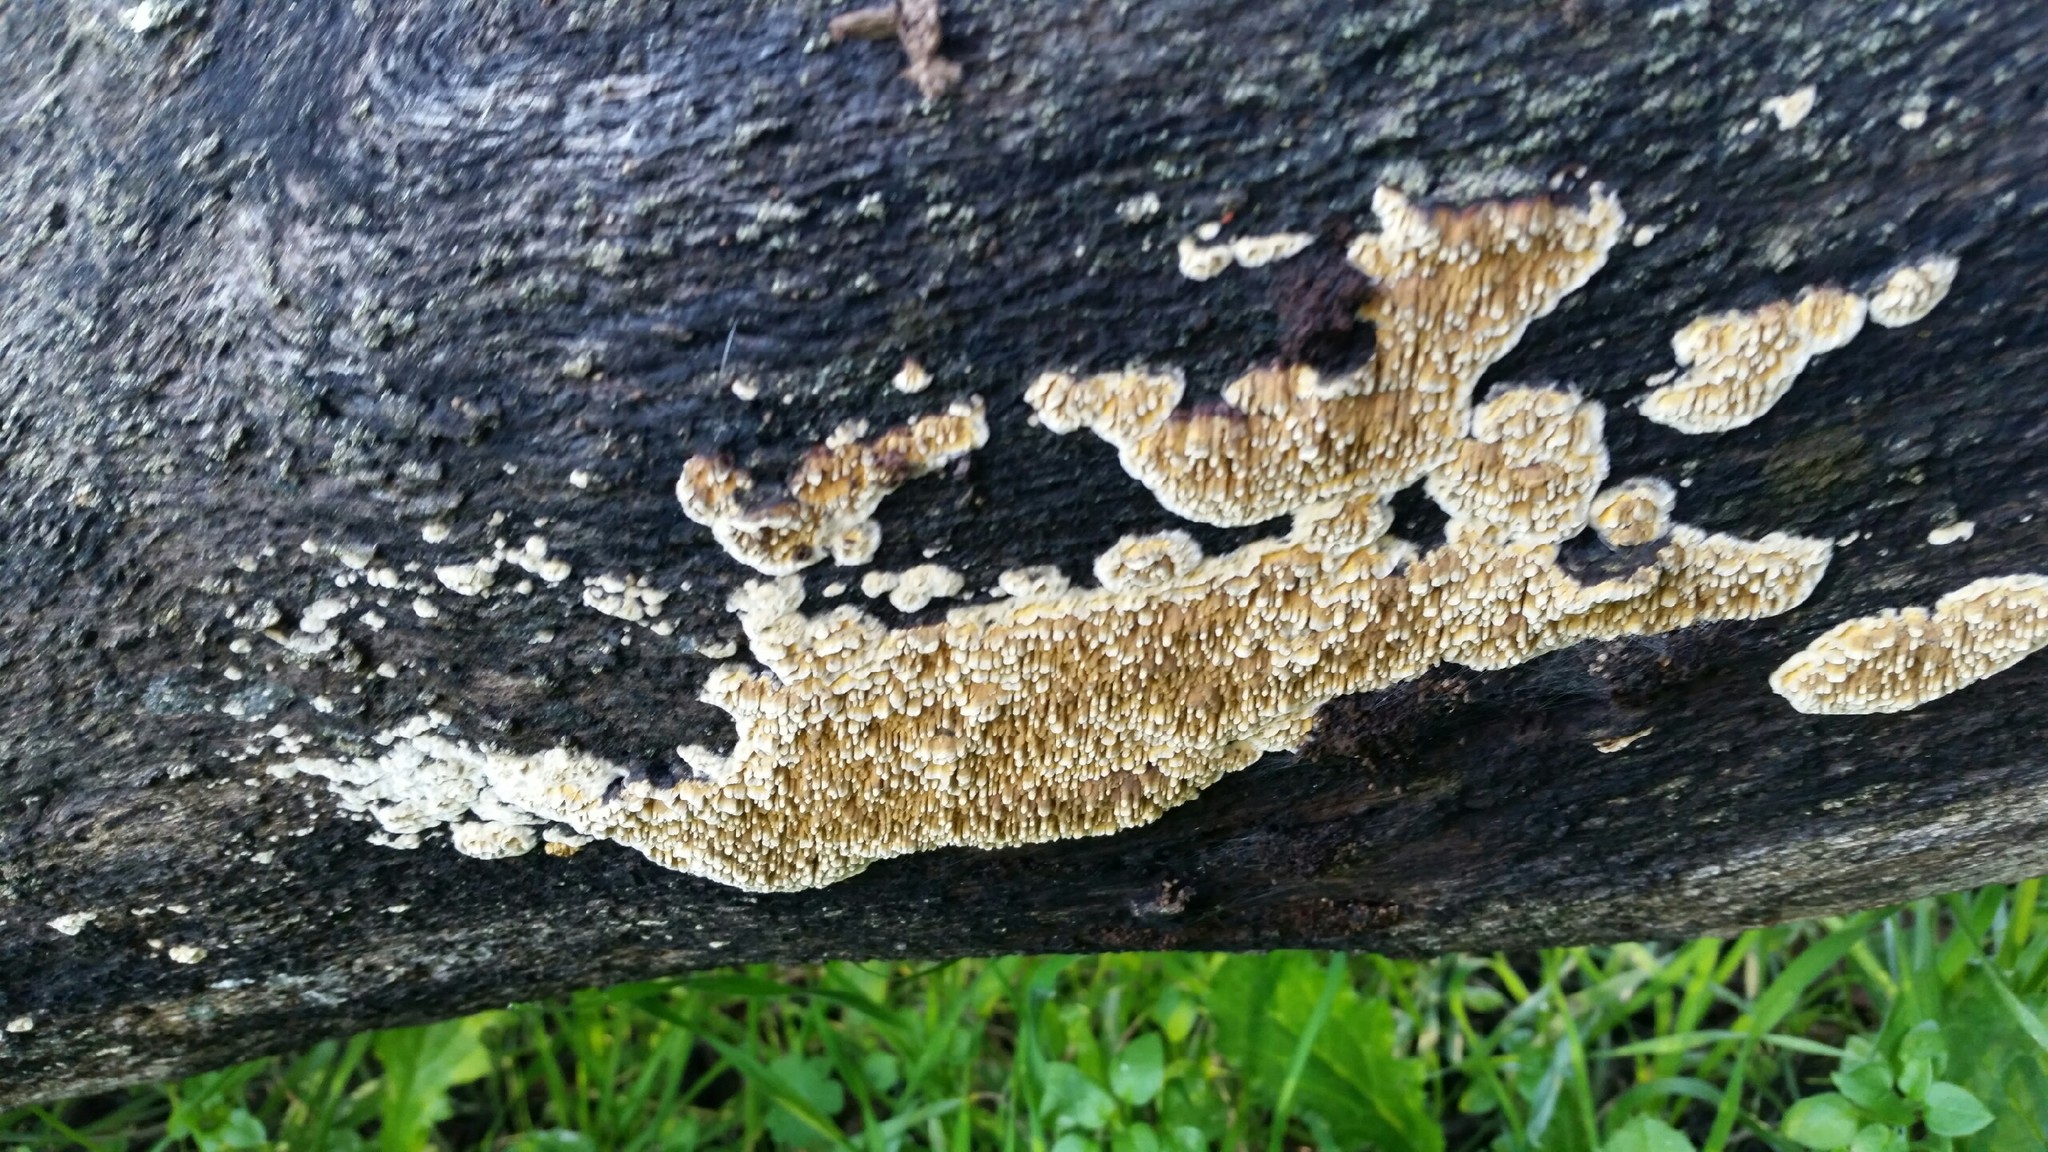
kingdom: Fungi
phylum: Basidiomycota
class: Agaricomycetes
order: Polyporales
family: Phanerochaetaceae
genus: Pirex
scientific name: Pirex concentricus
